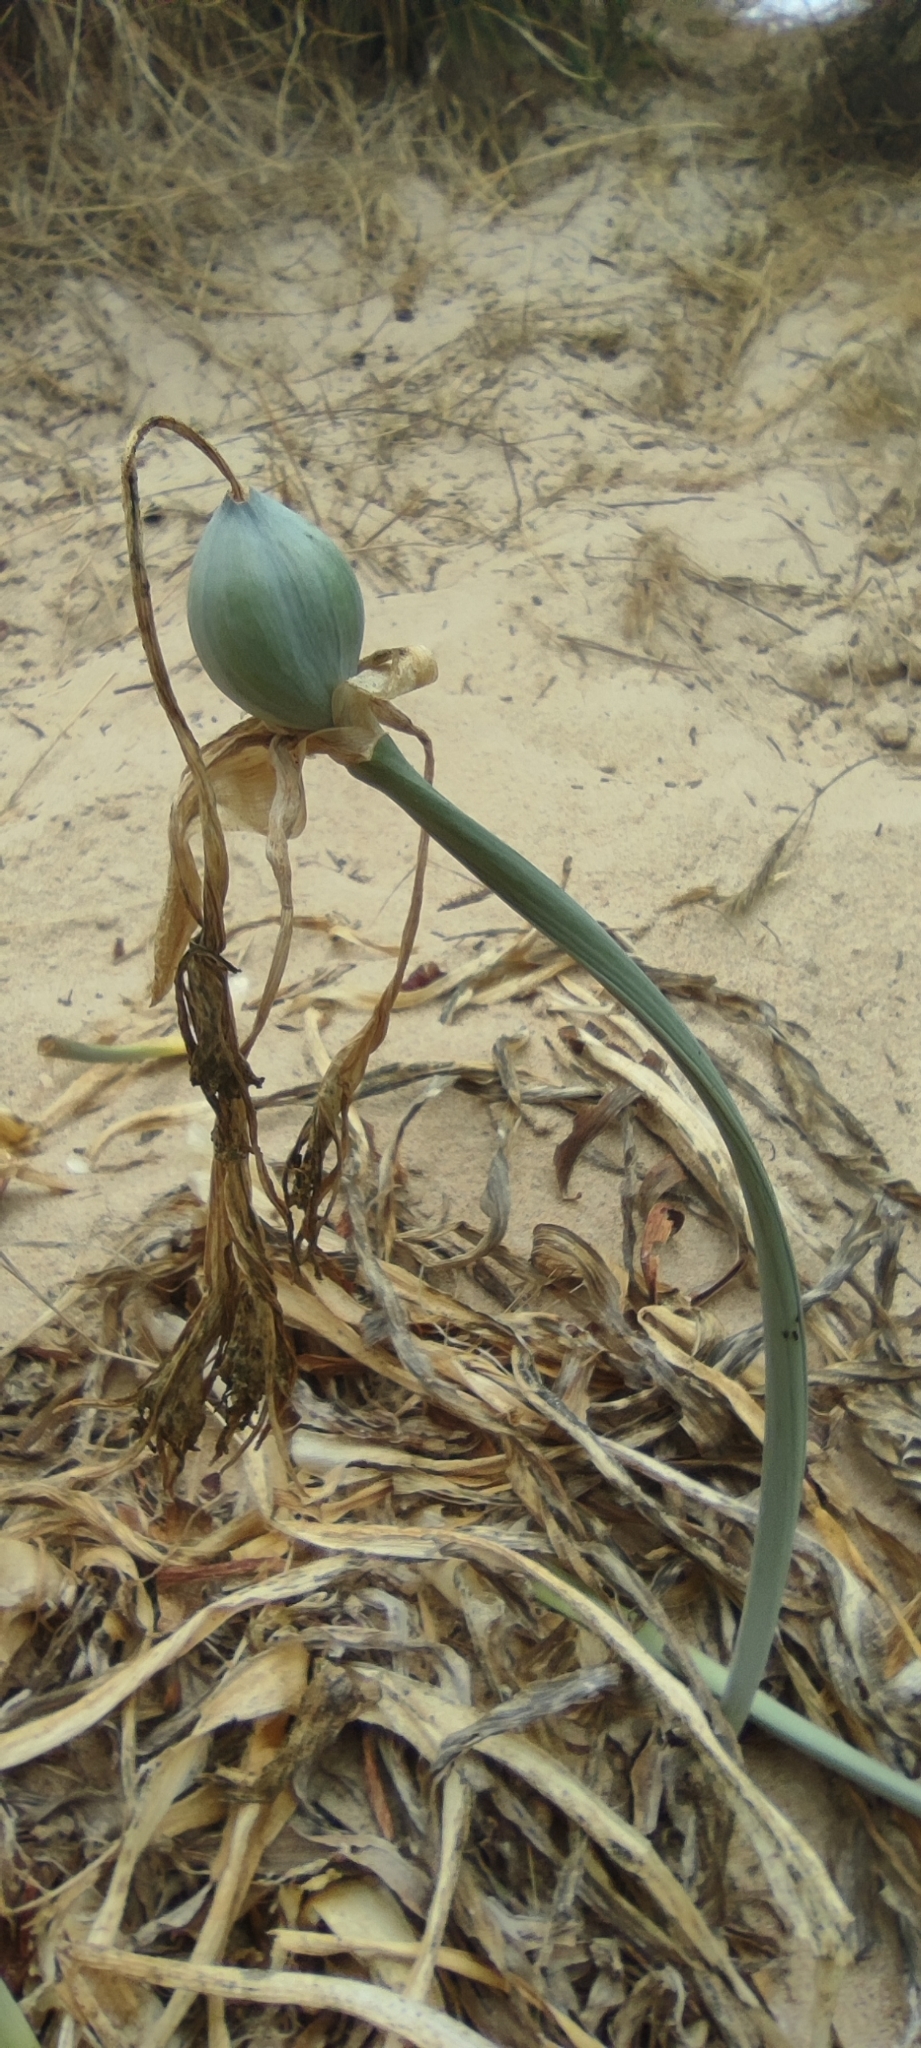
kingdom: Plantae
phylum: Tracheophyta
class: Liliopsida
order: Asparagales
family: Amaryllidaceae
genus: Pancratium
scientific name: Pancratium maritimum
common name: Sea-daffodil
